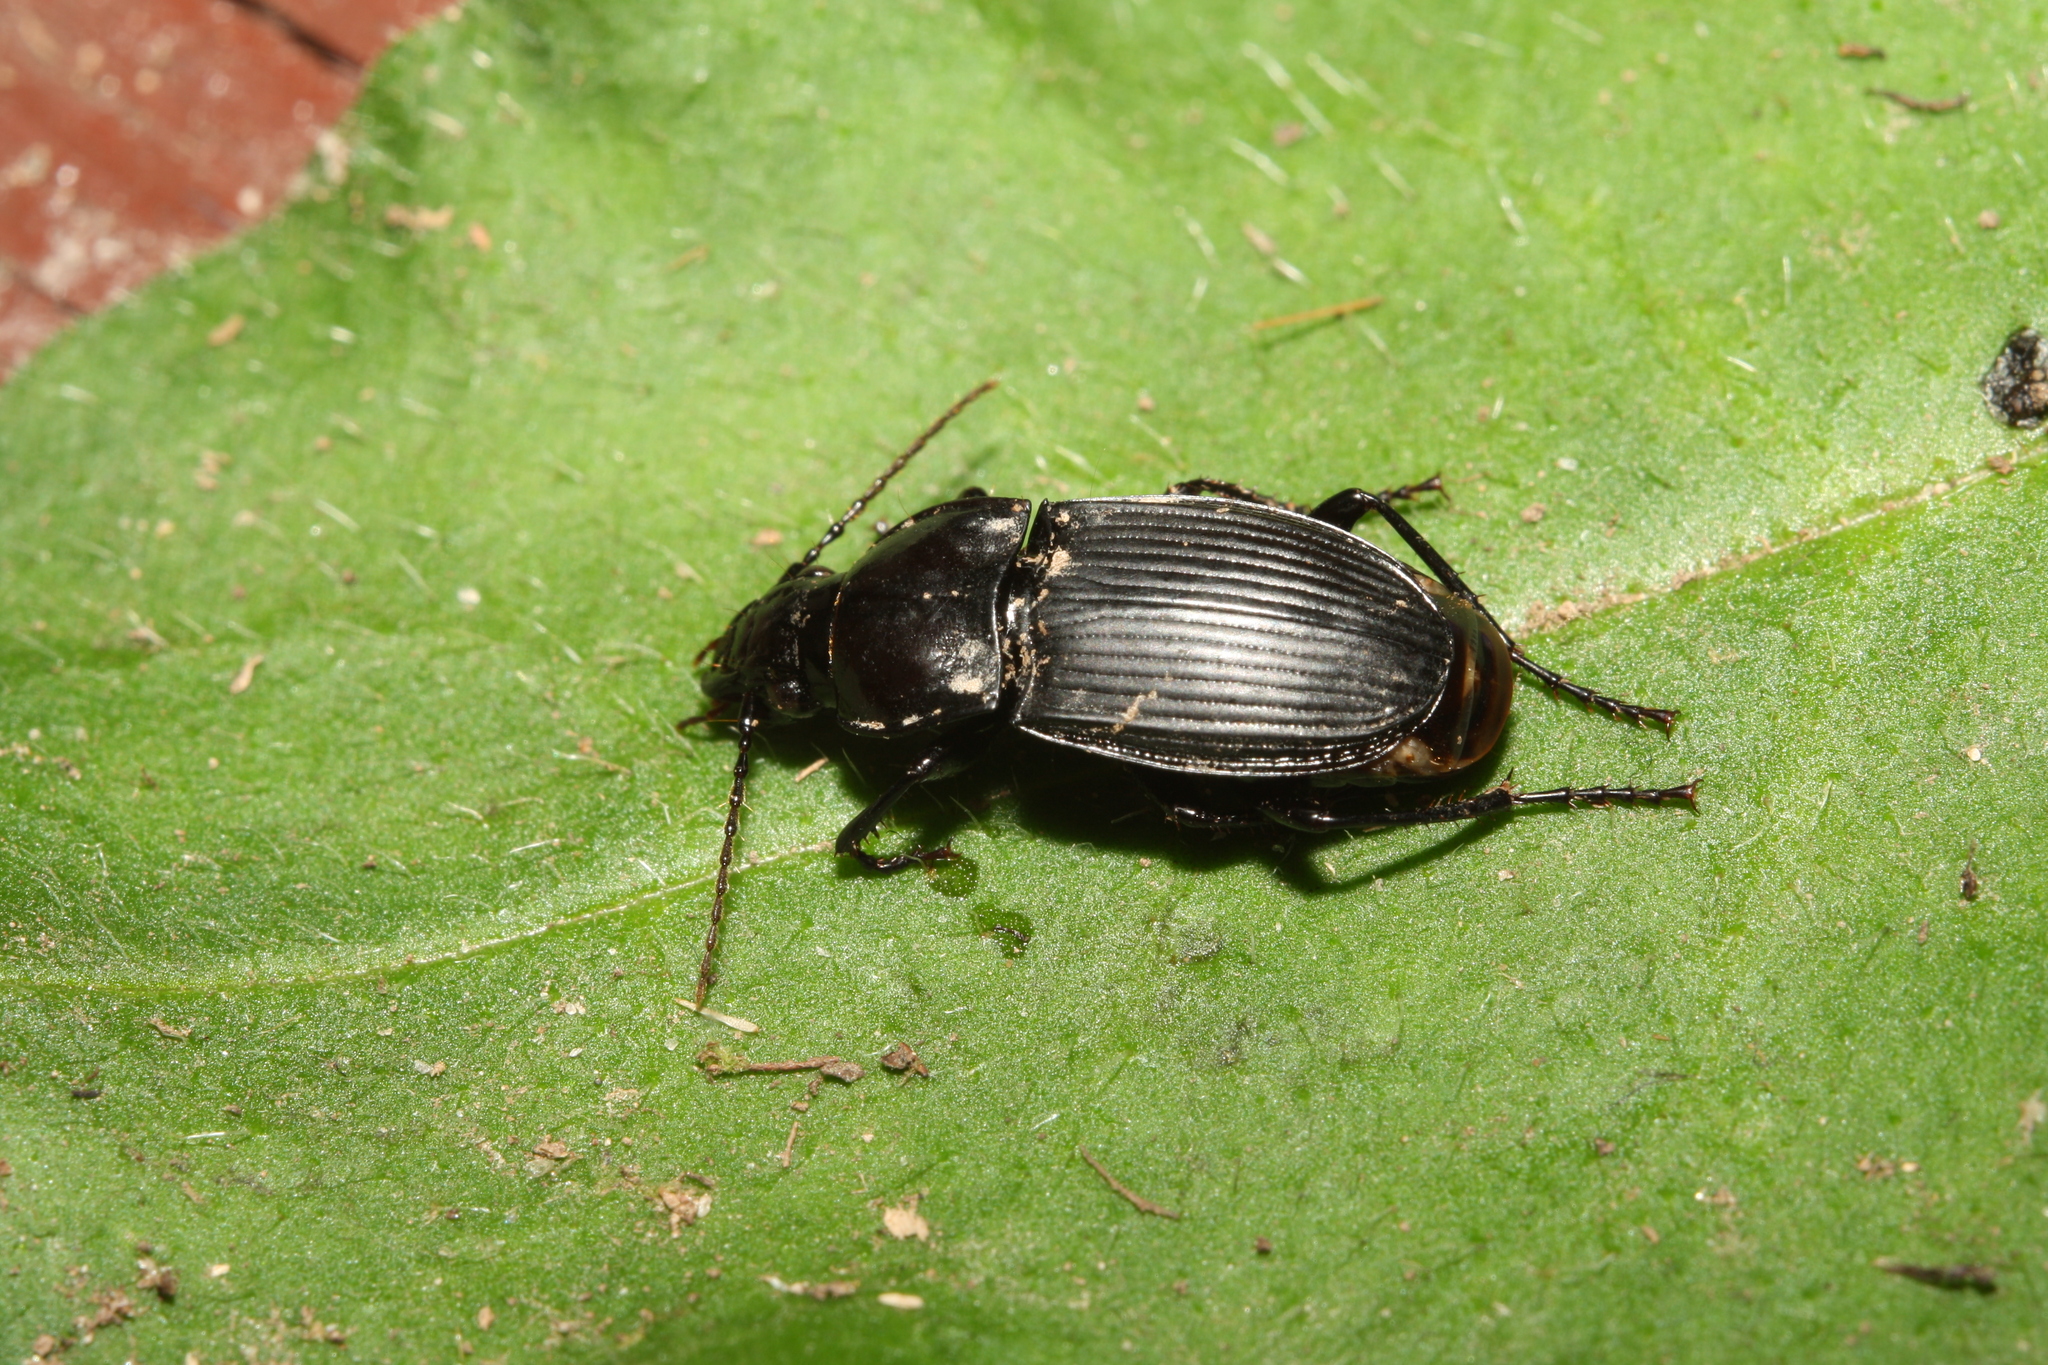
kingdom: Animalia
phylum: Arthropoda
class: Insecta
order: Coleoptera
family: Carabidae
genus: Abax
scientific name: Abax carinatus
